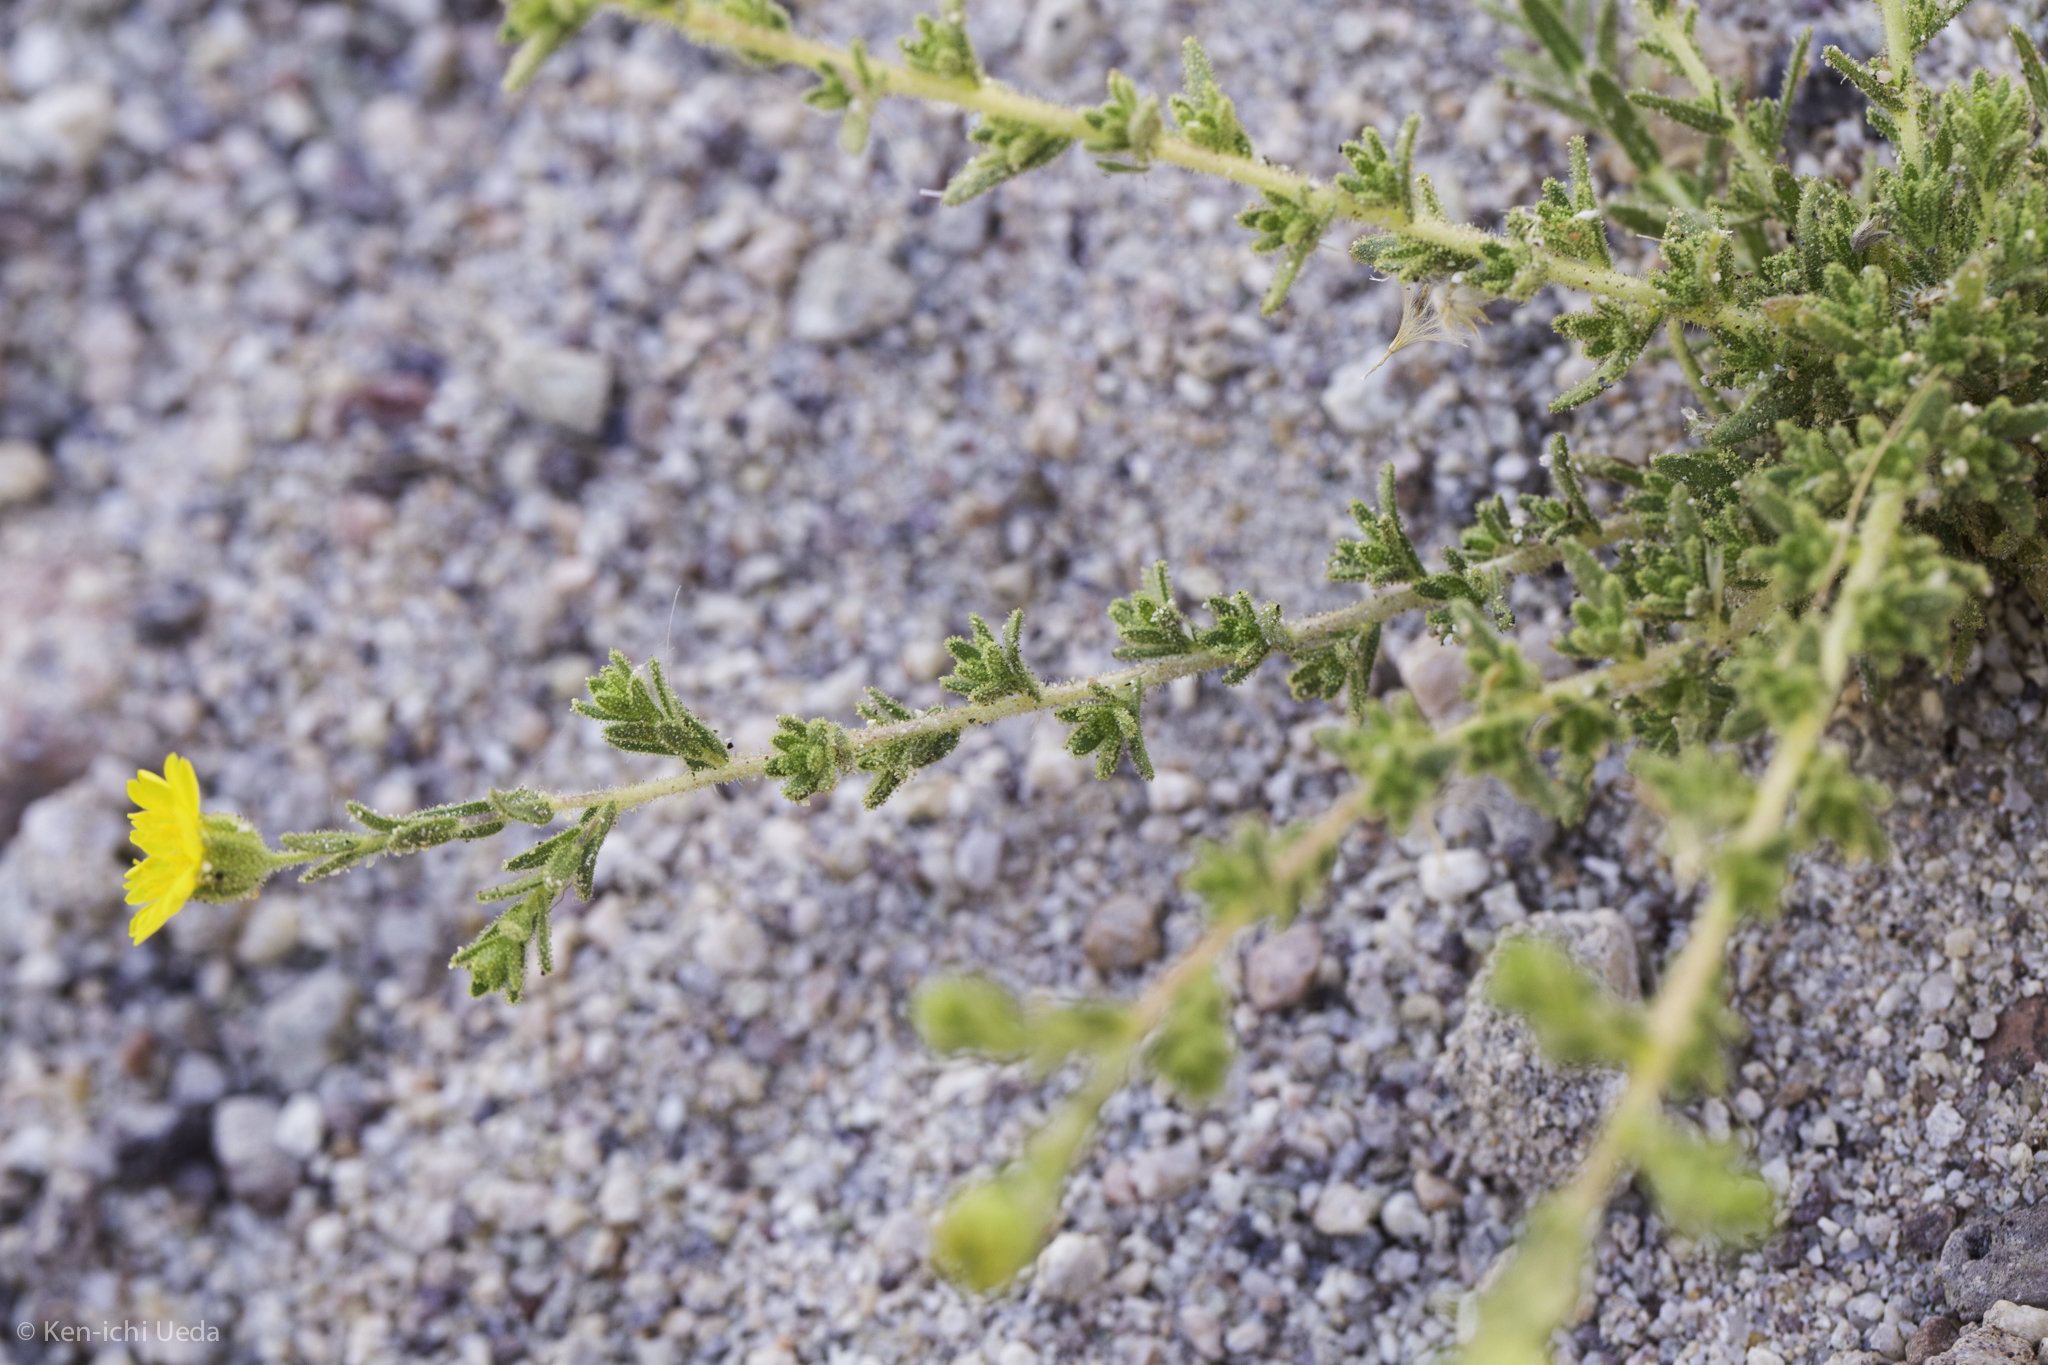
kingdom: Plantae
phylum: Tracheophyta
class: Magnoliopsida
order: Asterales
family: Asteraceae
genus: Deinandra
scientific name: Deinandra arida
